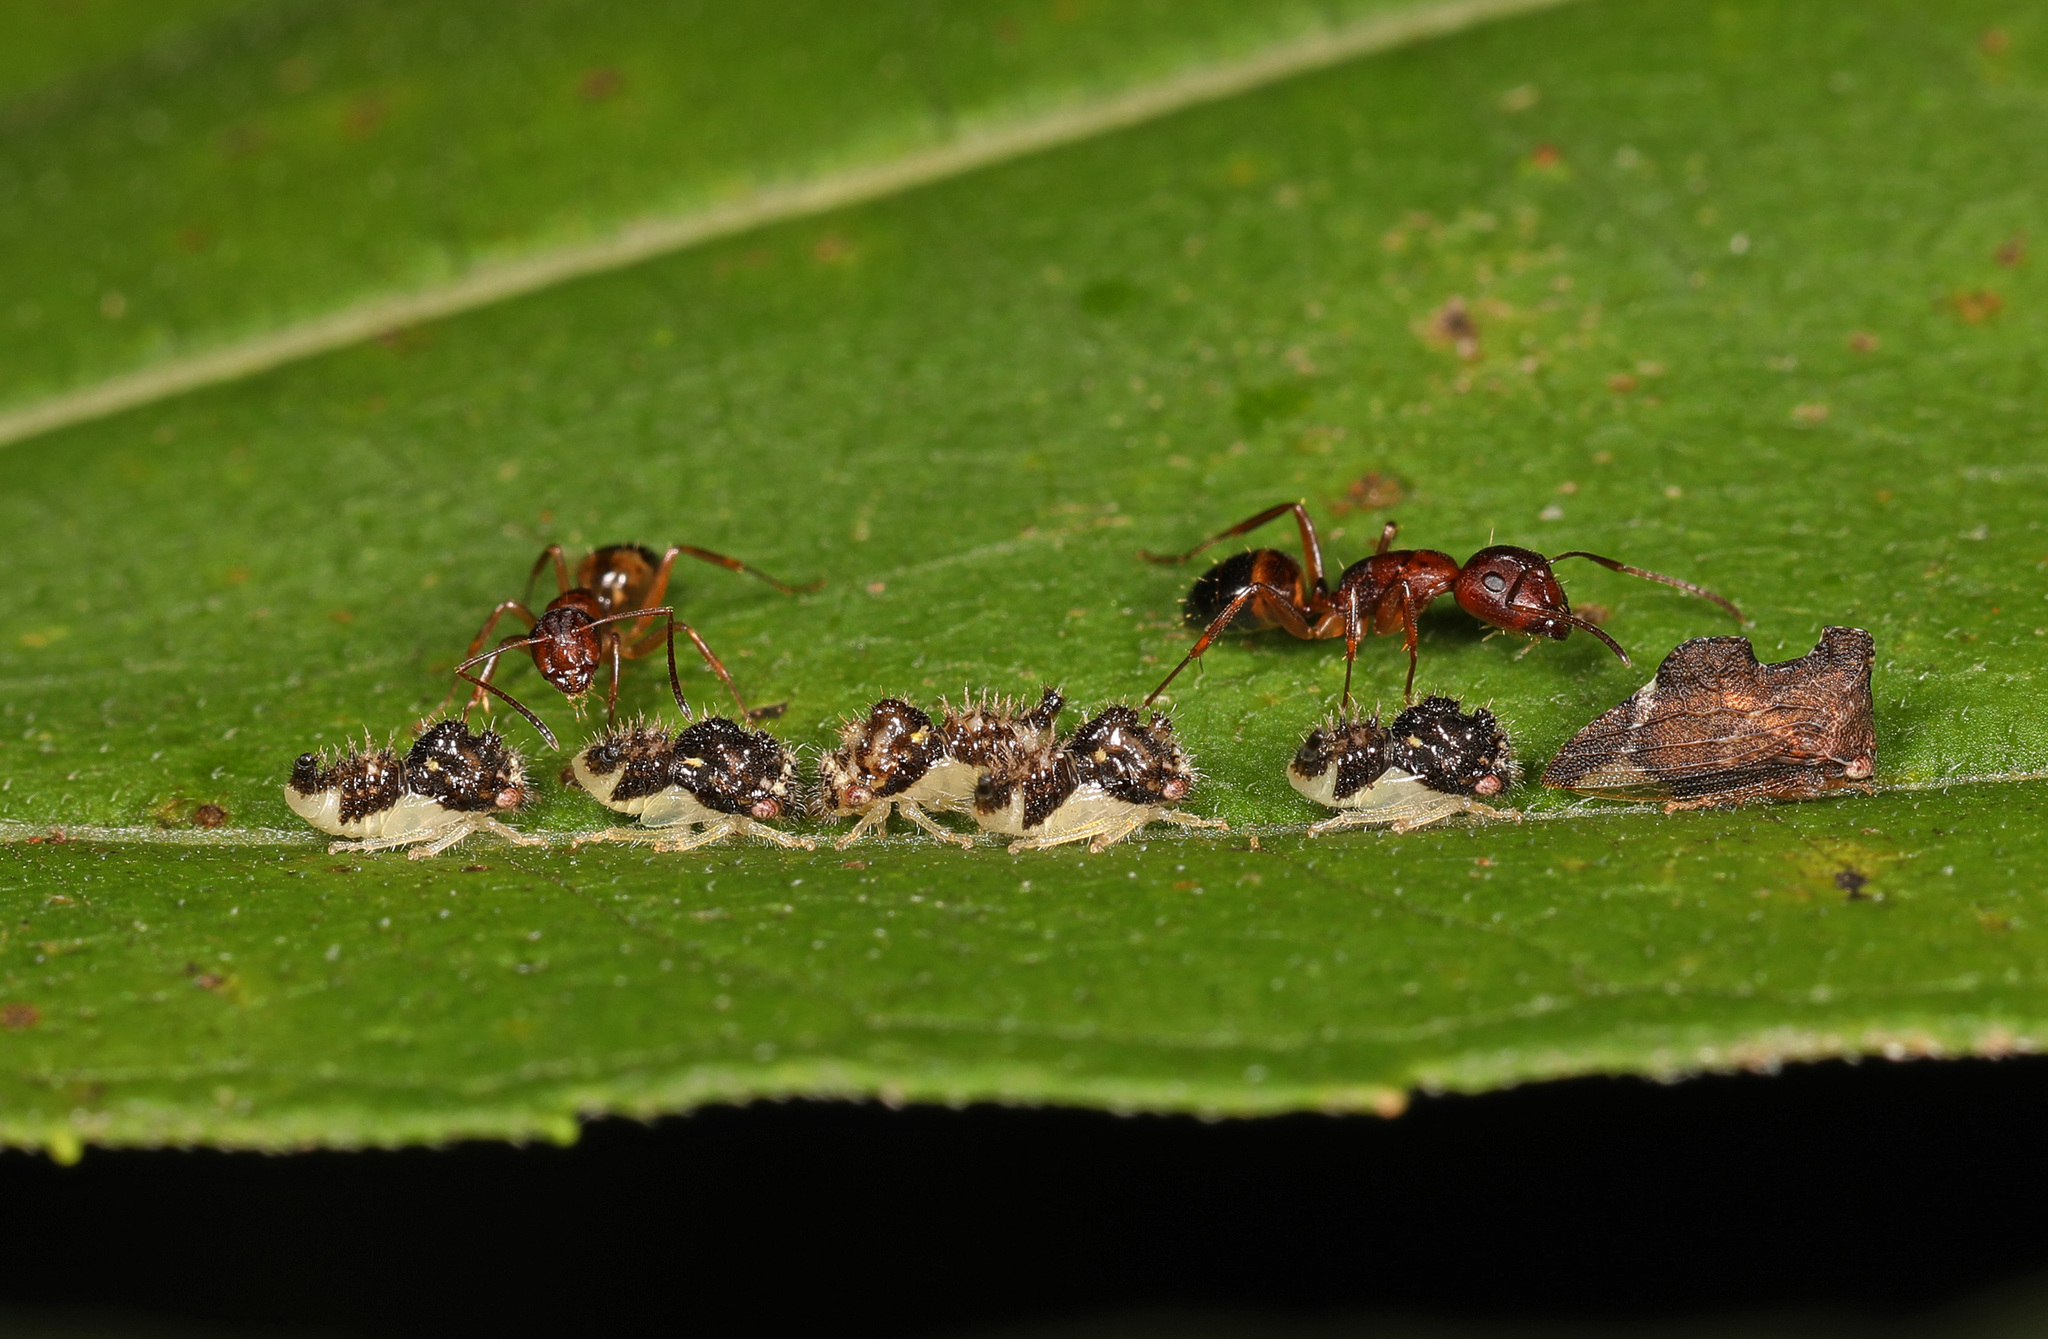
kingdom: Animalia
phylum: Arthropoda
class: Insecta
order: Hemiptera
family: Membracidae
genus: Entylia
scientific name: Entylia carinata
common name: Keeled treehopper
